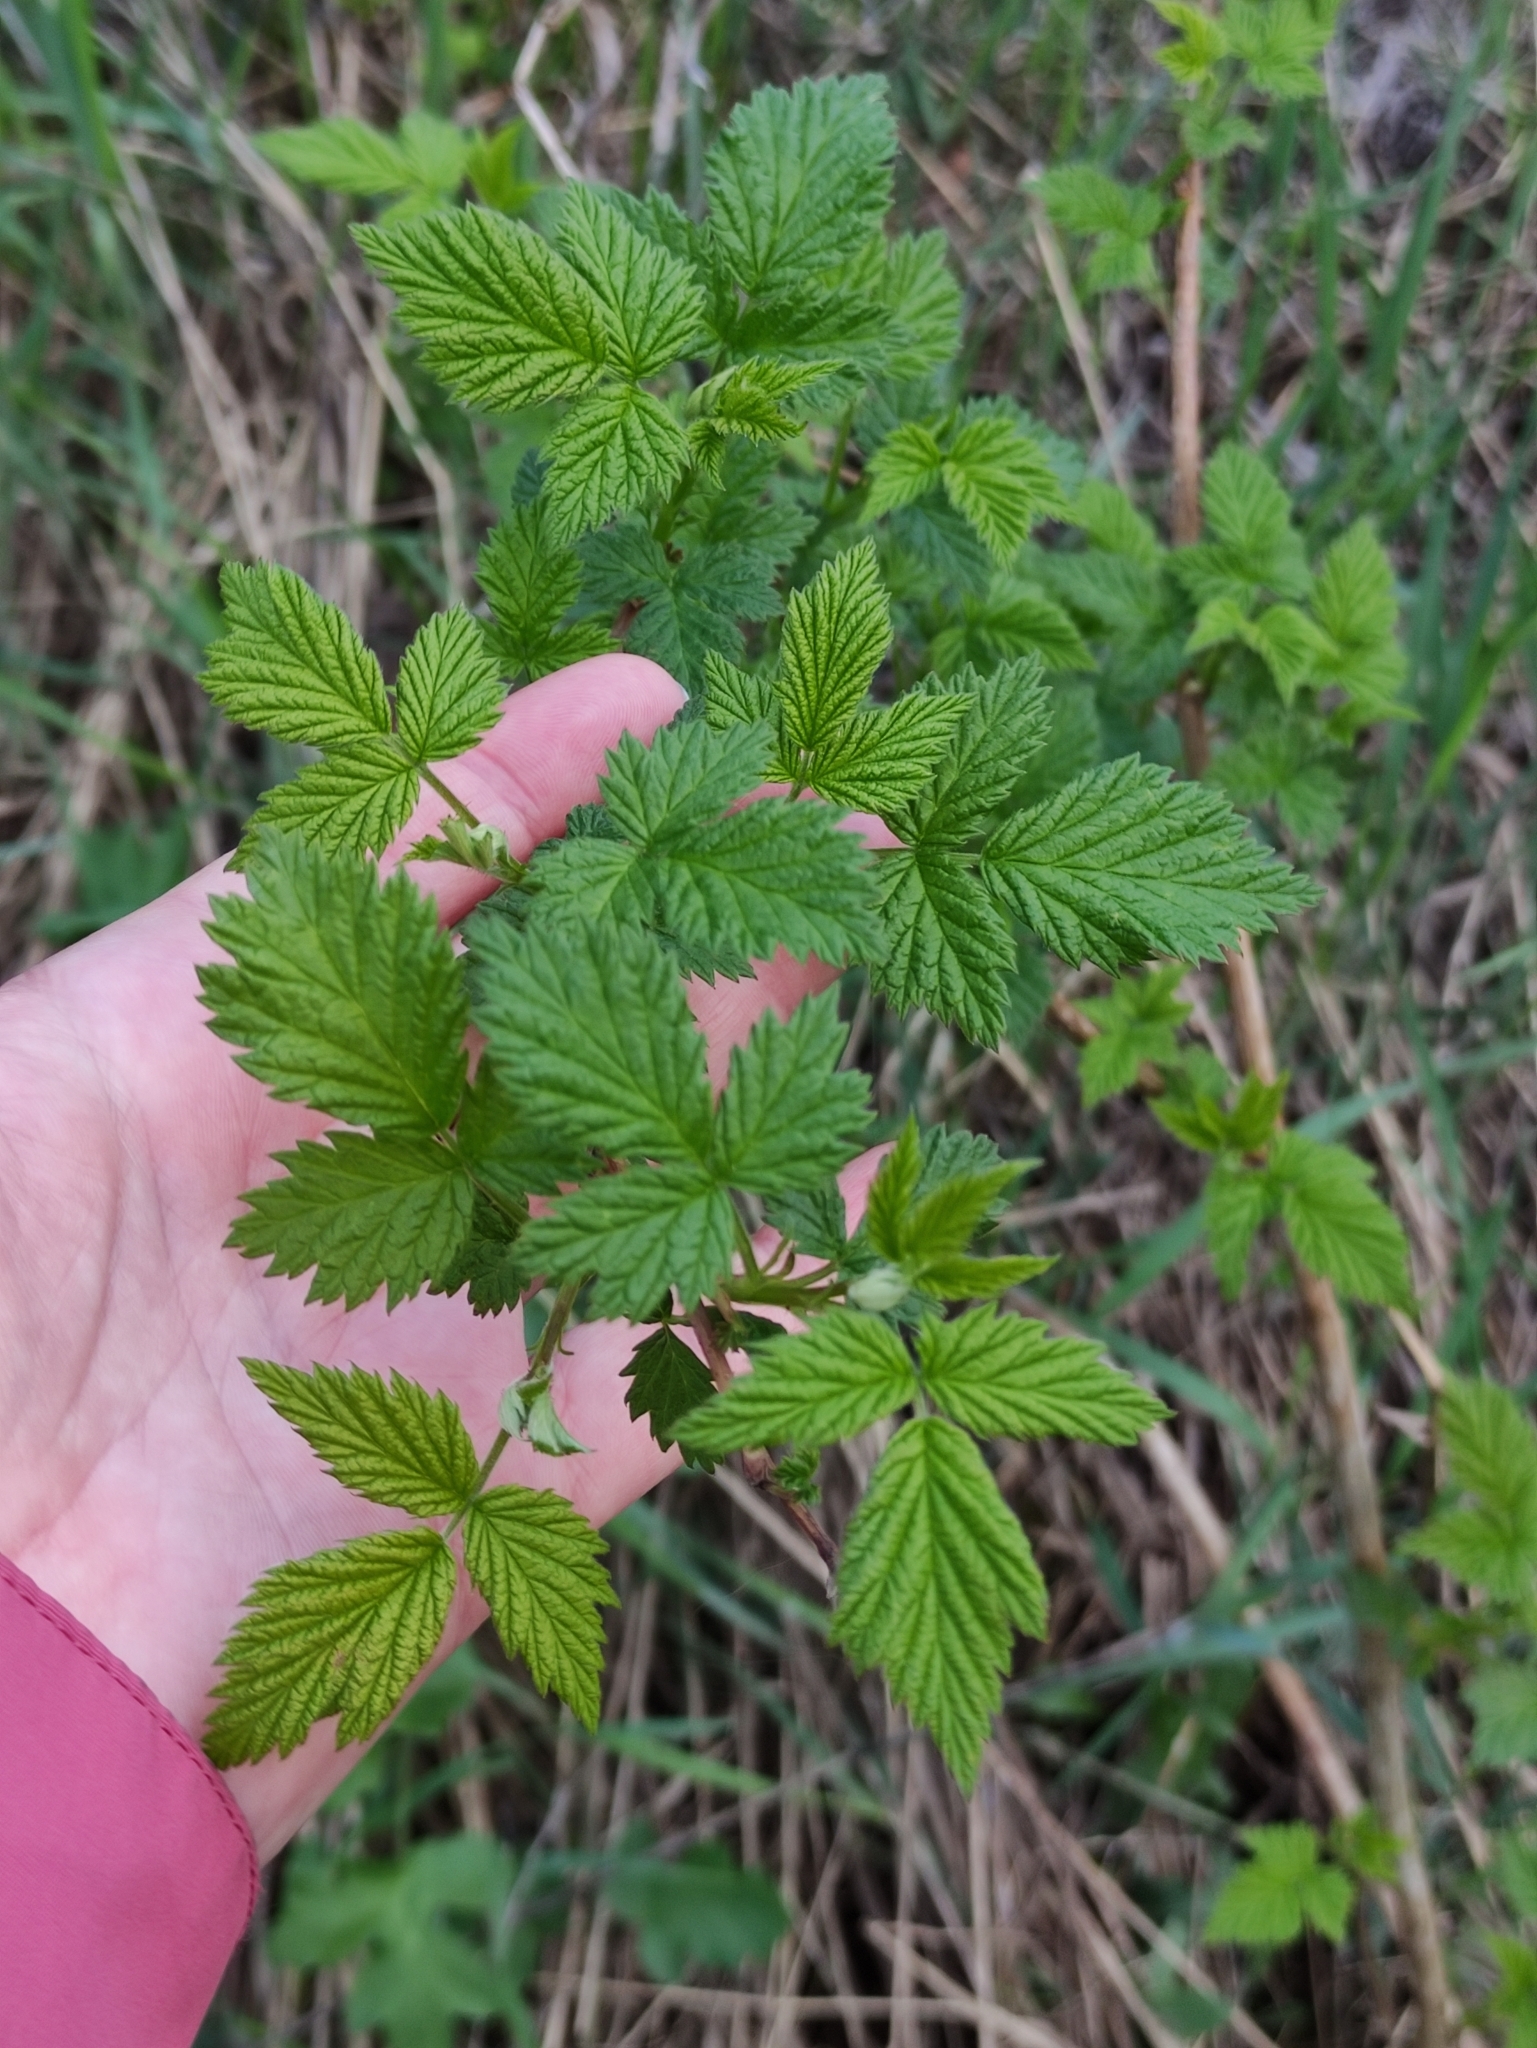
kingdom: Plantae
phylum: Tracheophyta
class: Magnoliopsida
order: Rosales
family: Rosaceae
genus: Rubus
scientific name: Rubus idaeus
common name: Raspberry
